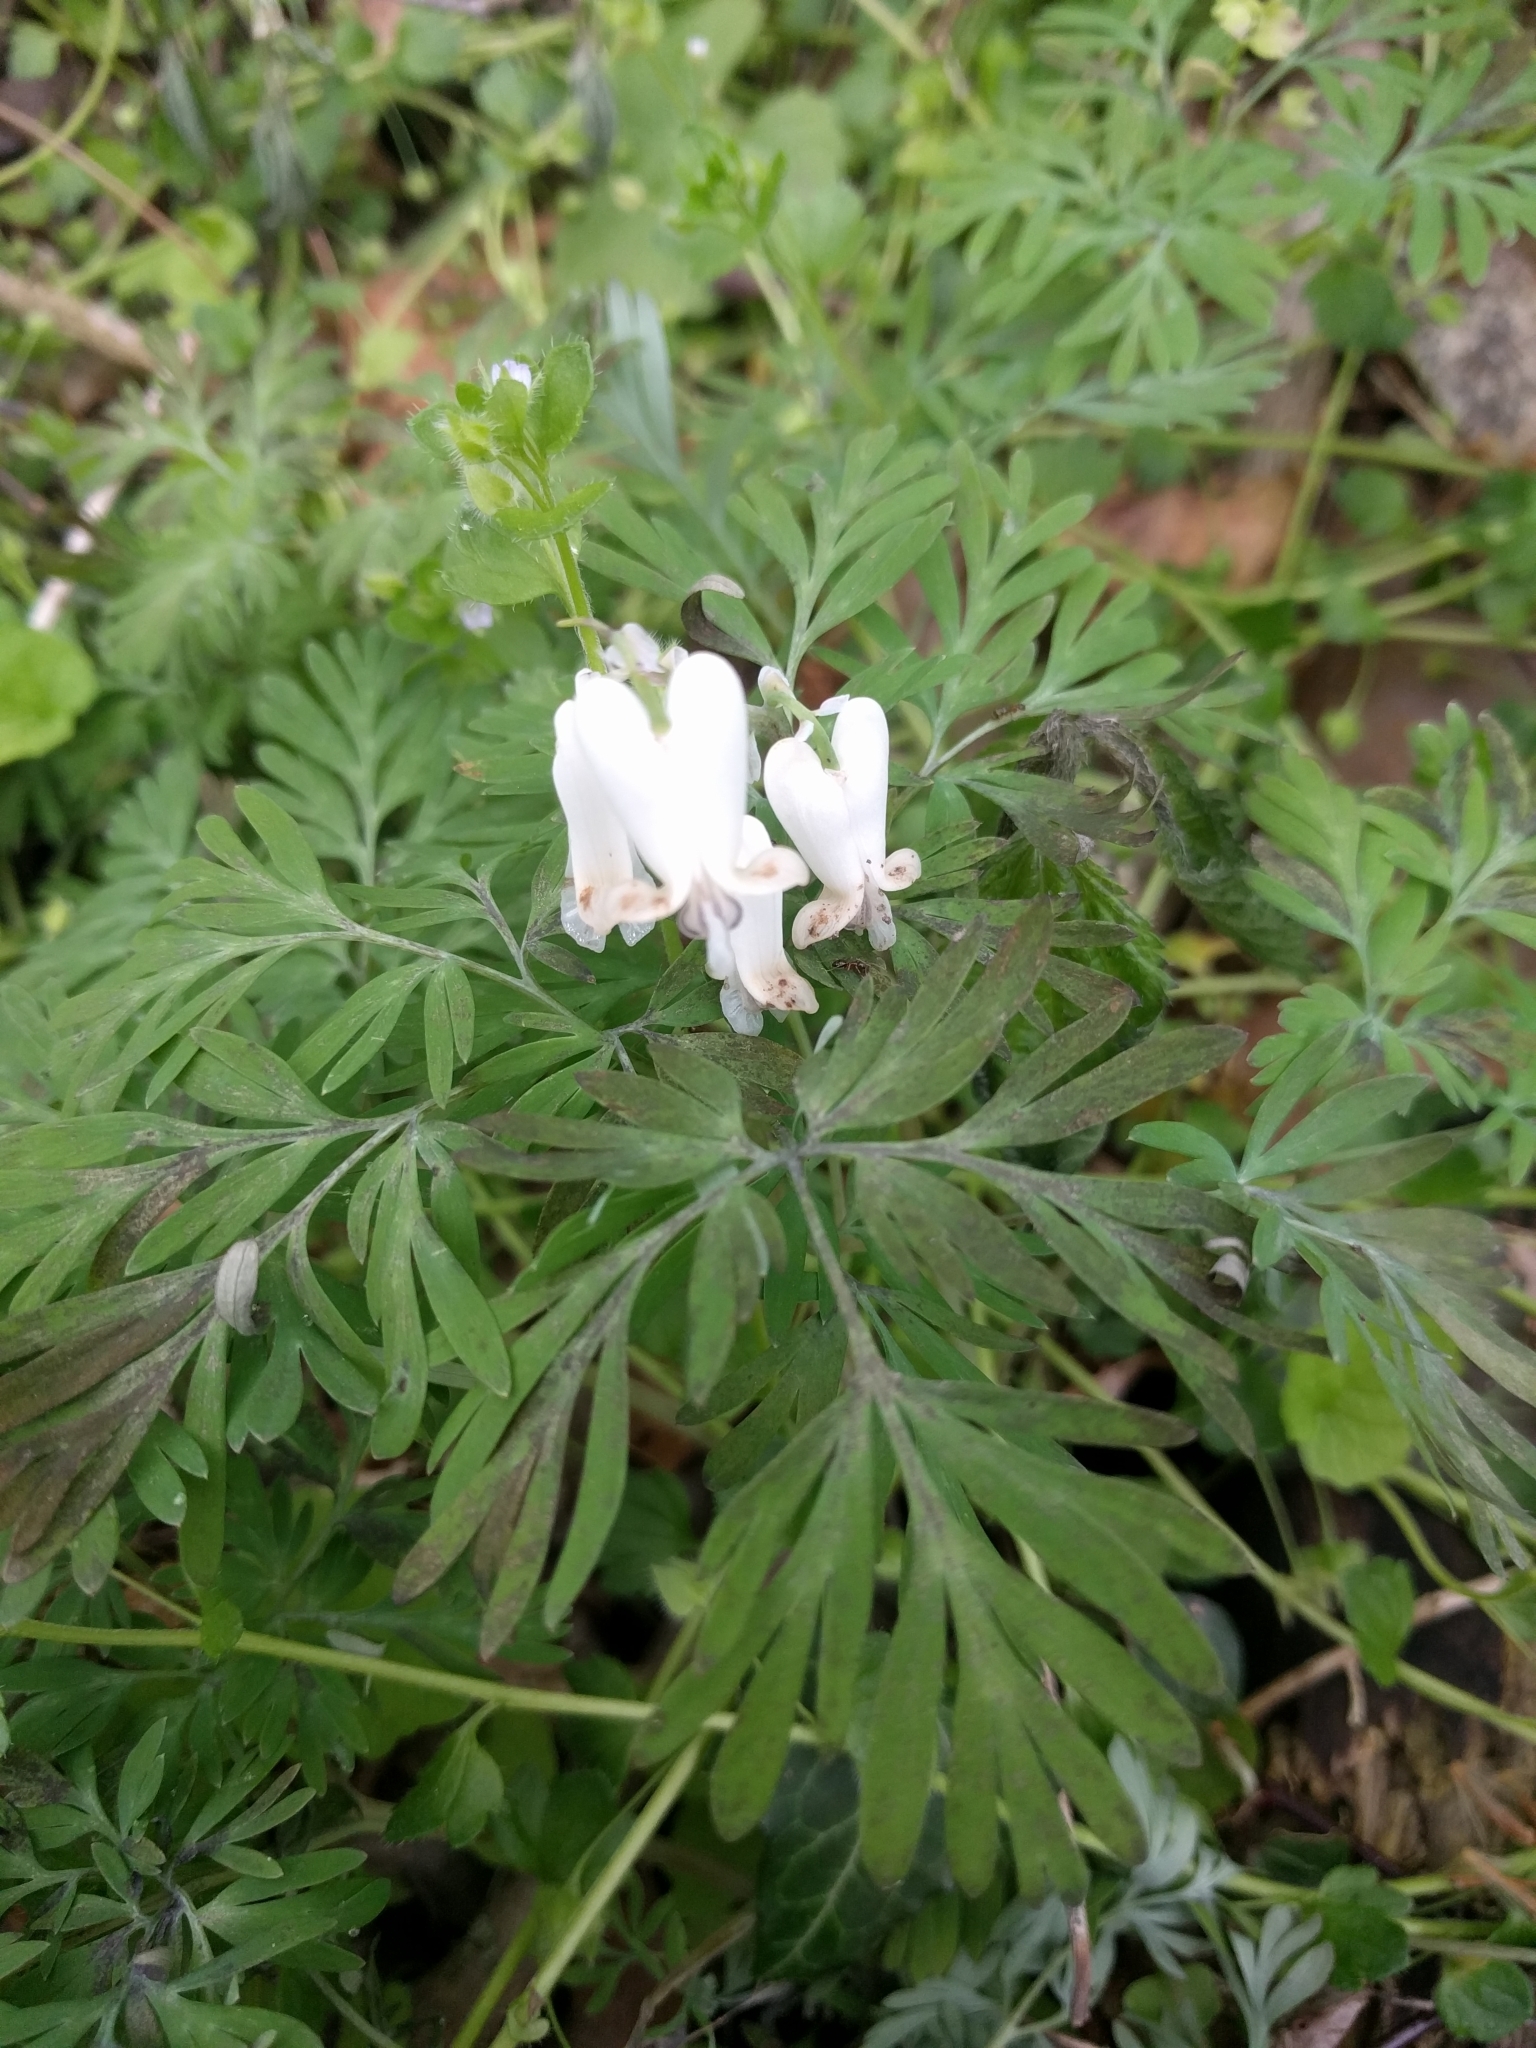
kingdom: Plantae
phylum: Tracheophyta
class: Magnoliopsida
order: Ranunculales
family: Papaveraceae
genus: Dicentra
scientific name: Dicentra canadensis
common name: Squirrel-corn
